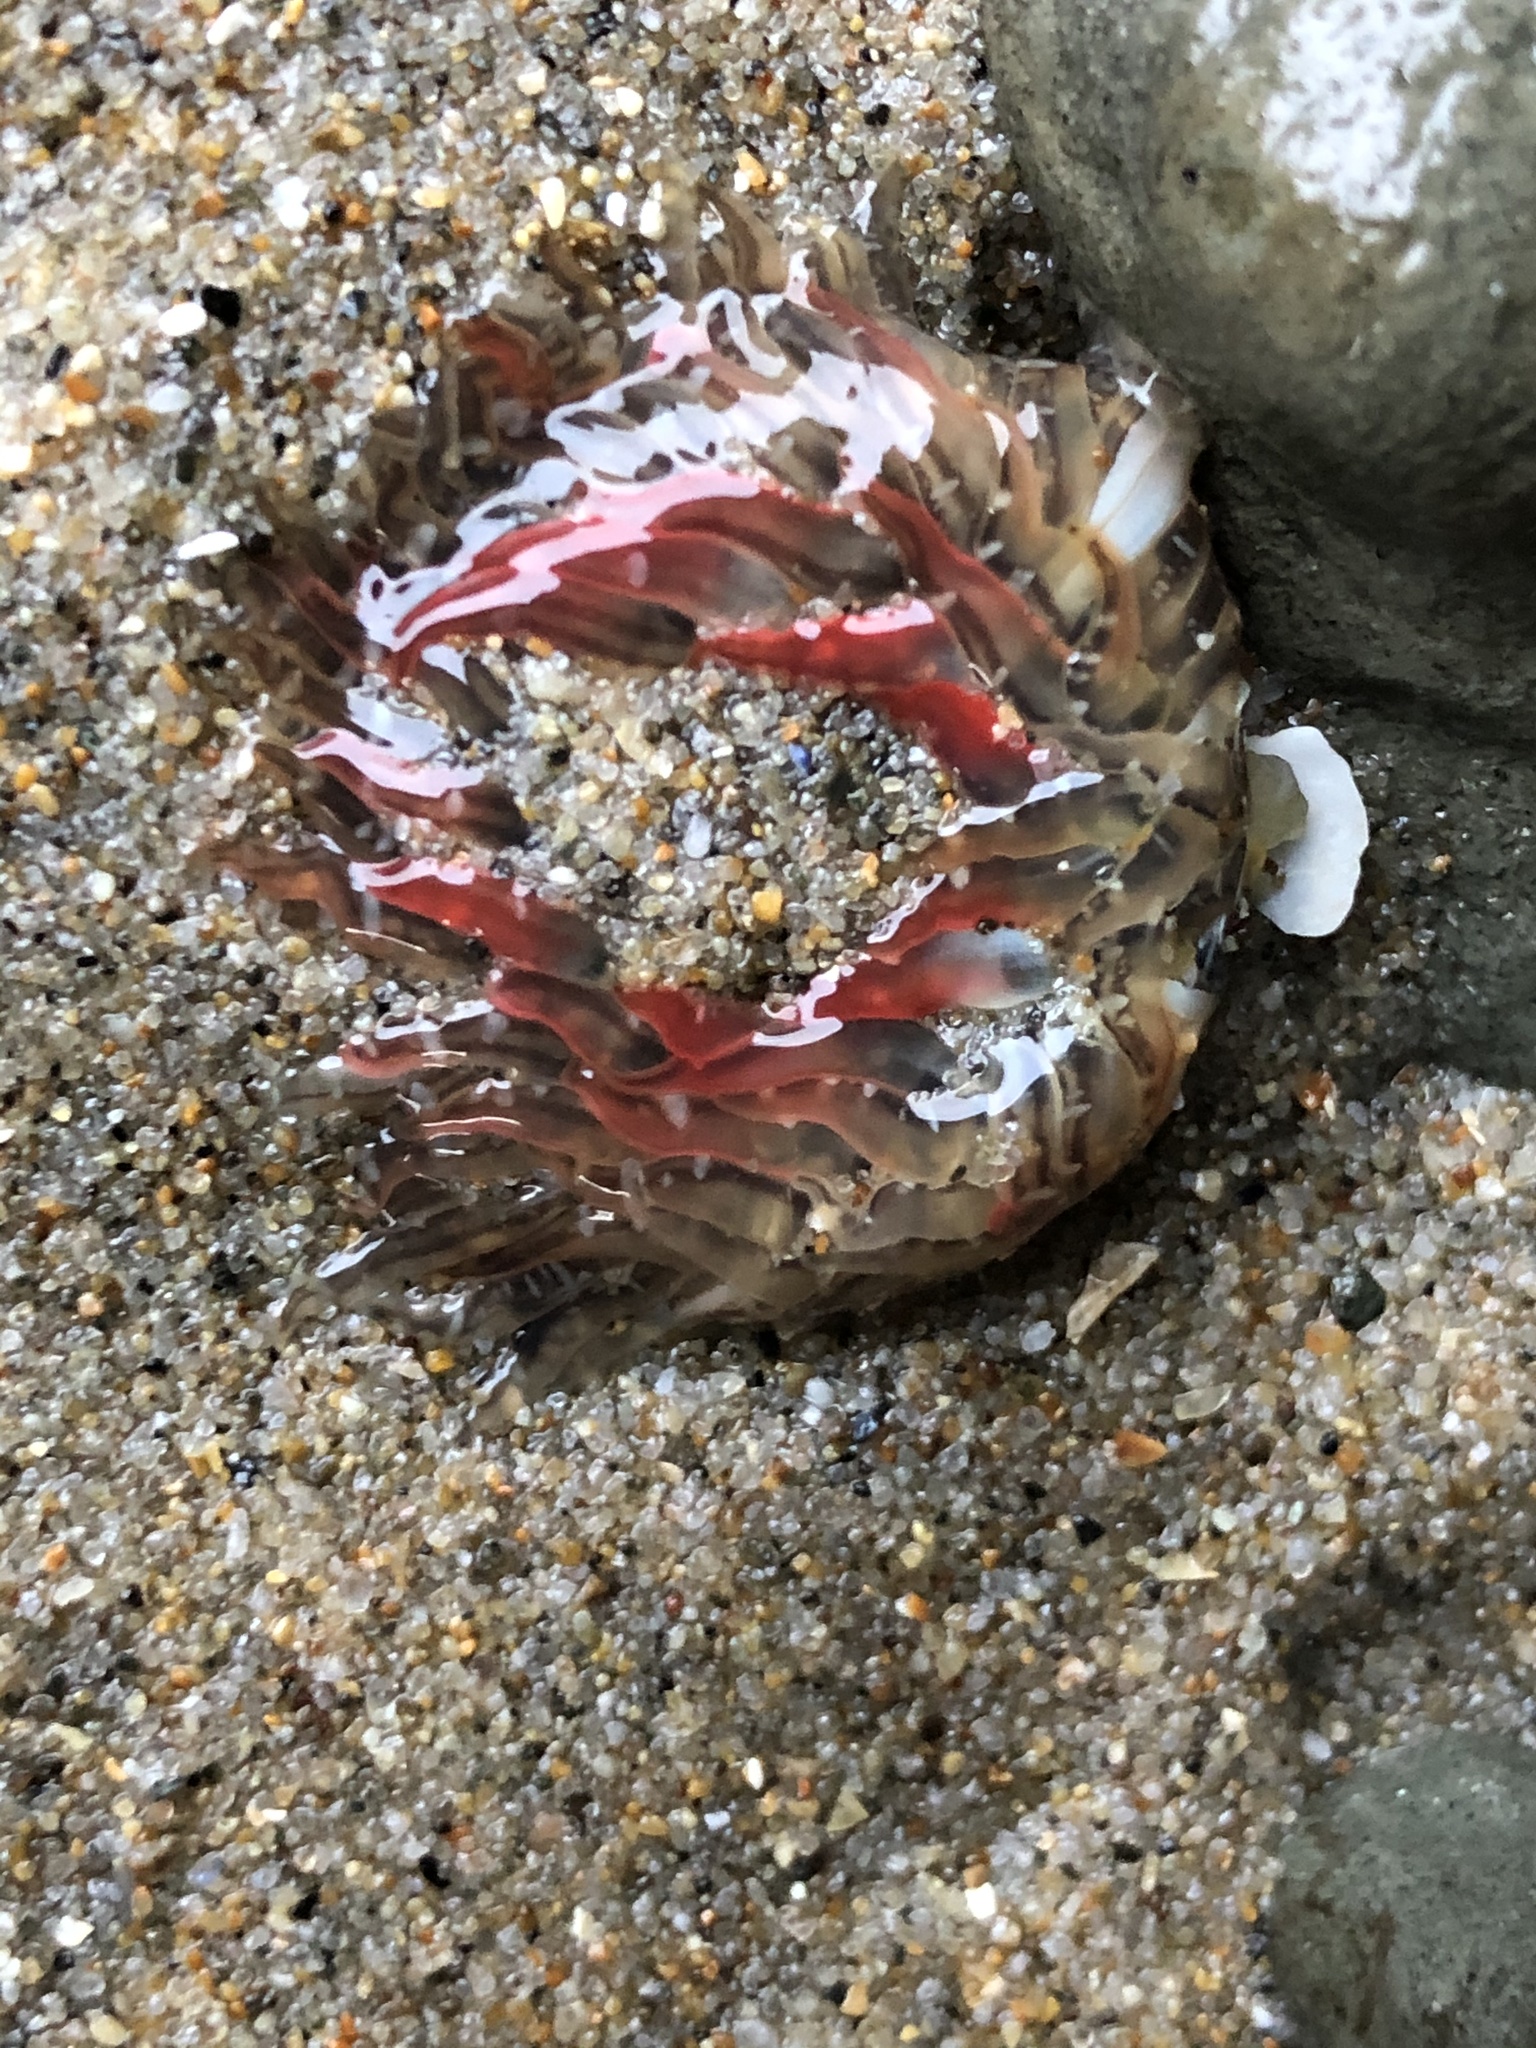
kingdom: Animalia
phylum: Cnidaria
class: Anthozoa
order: Actiniaria
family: Actiniidae
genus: Anthopleura
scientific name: Anthopleura artemisia
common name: Buried sea anemone
